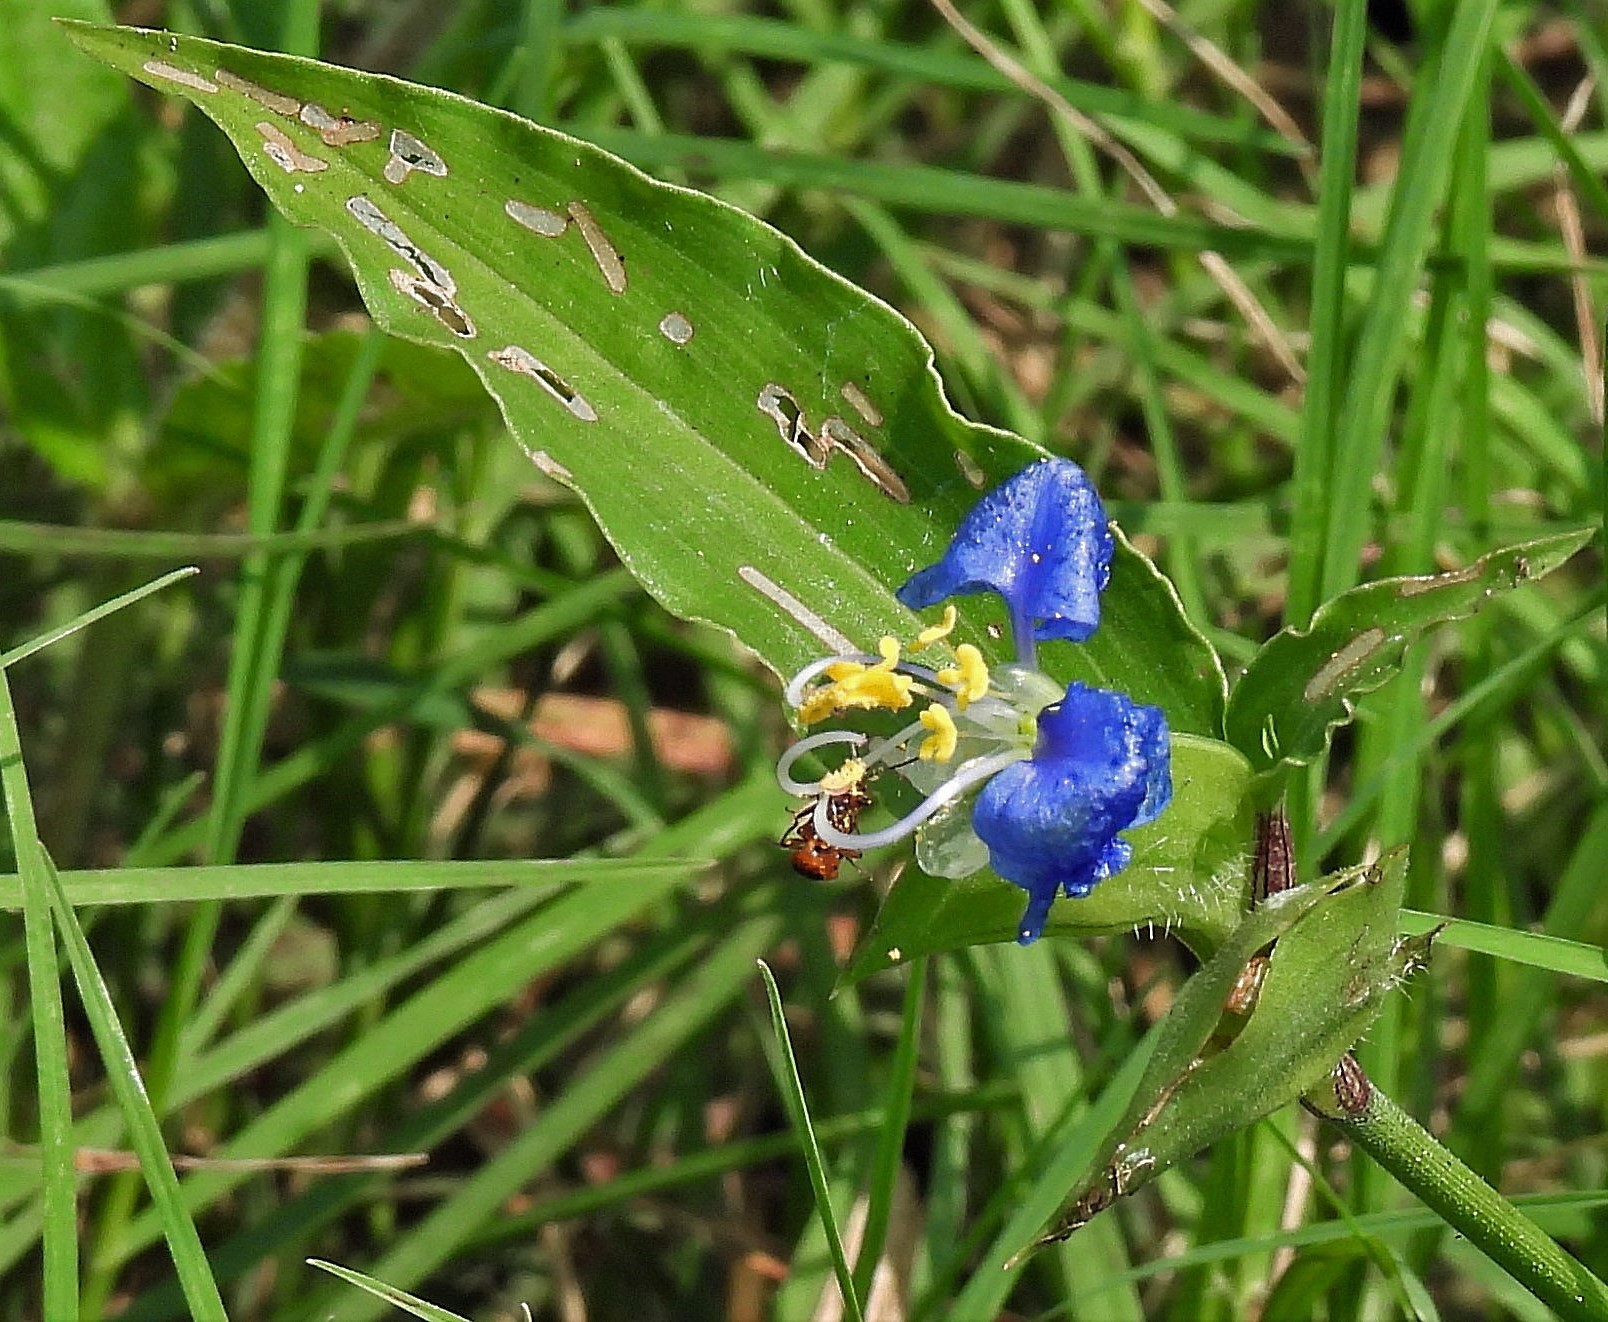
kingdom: Plantae
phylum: Tracheophyta
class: Liliopsida
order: Commelinales
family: Commelinaceae
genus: Commelina
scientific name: Commelina diffusa
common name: Climbing dayflower
